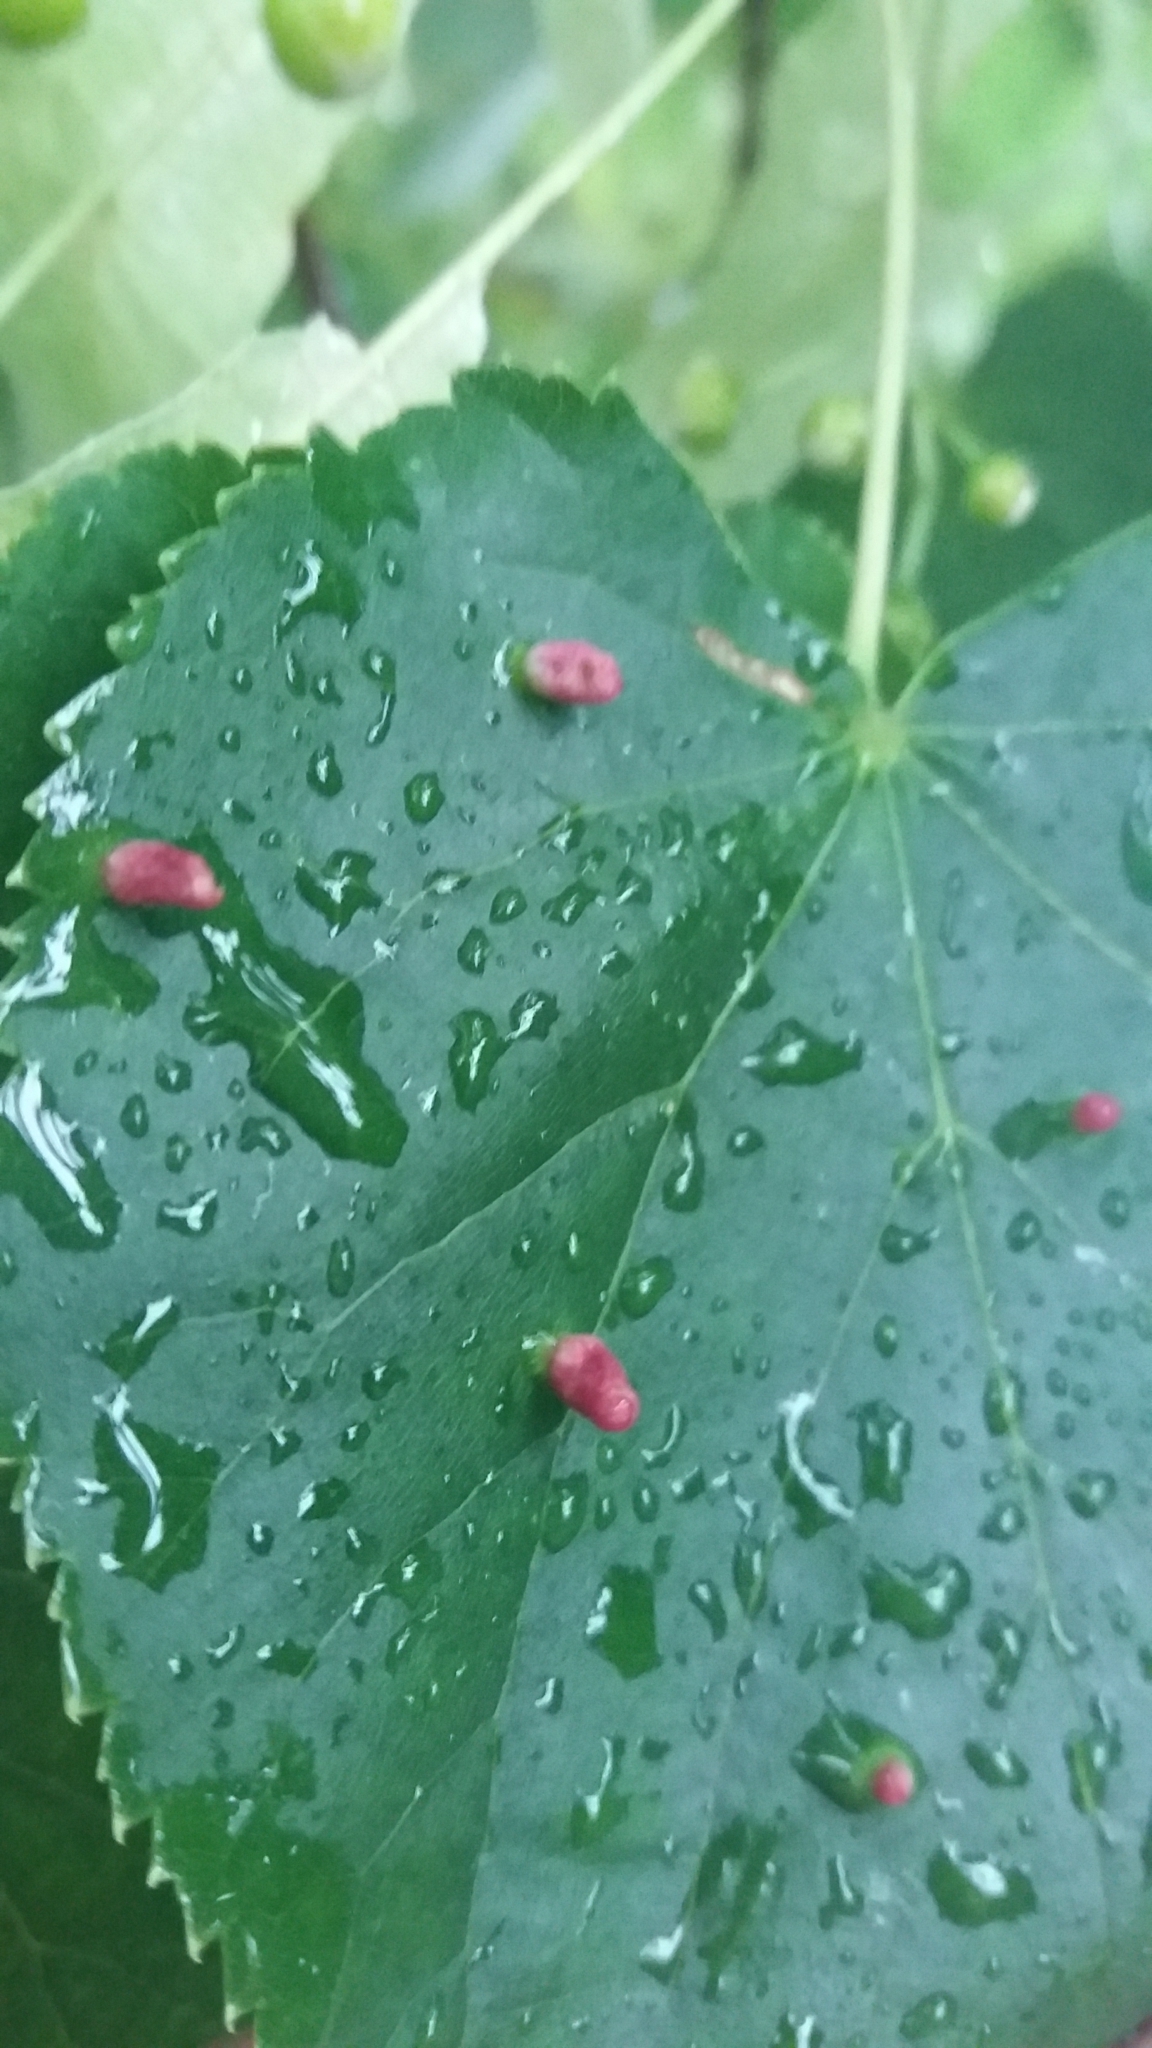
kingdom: Animalia
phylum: Arthropoda
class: Arachnida
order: Trombidiformes
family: Eriophyidae
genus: Eriophyes
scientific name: Eriophyes tiliae
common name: Red nail gall mite
